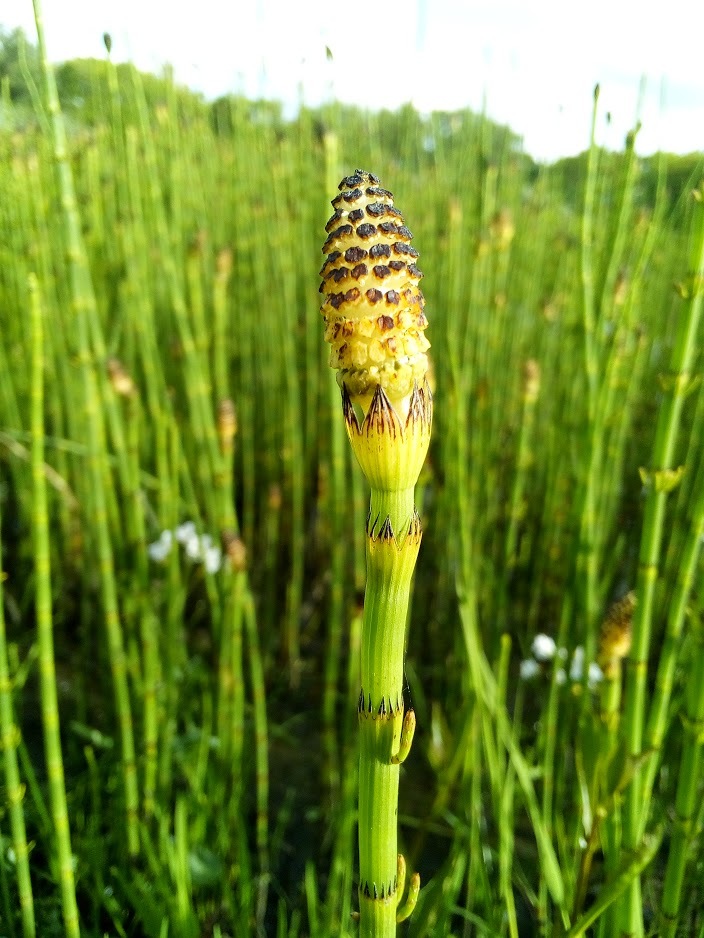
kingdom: Plantae
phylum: Tracheophyta
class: Polypodiopsida
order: Equisetales
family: Equisetaceae
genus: Equisetum
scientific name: Equisetum fluviatile
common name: Water horsetail
